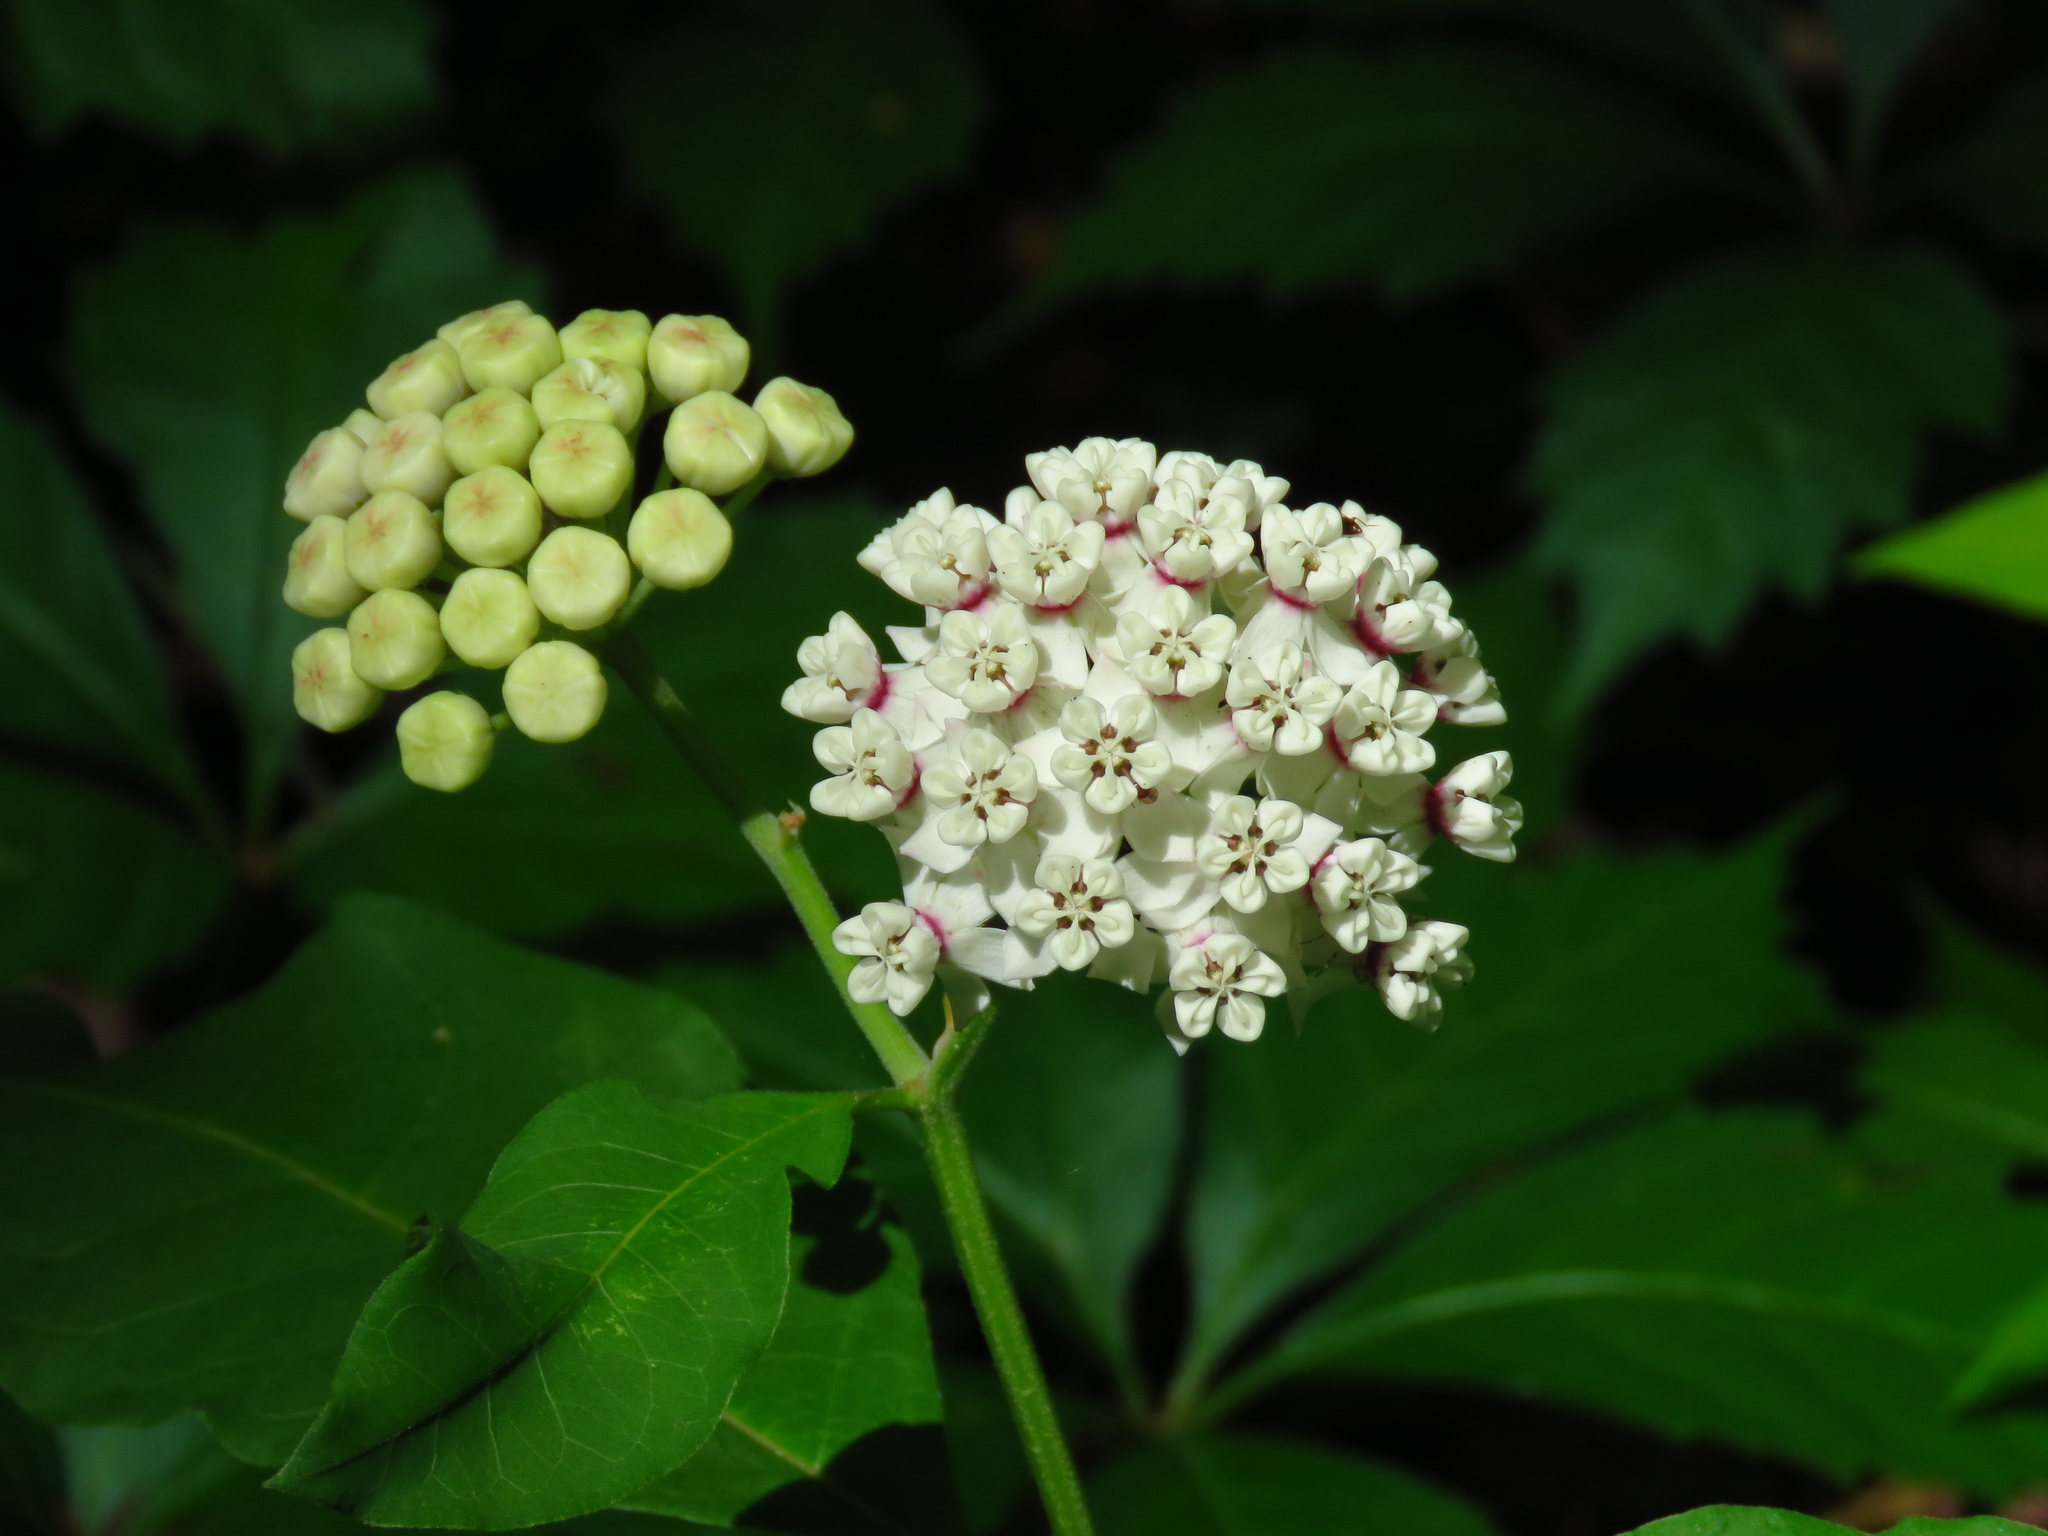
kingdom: Plantae
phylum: Tracheophyta
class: Magnoliopsida
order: Gentianales
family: Apocynaceae
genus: Asclepias
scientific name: Asclepias variegata
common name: Variegated milkweed
